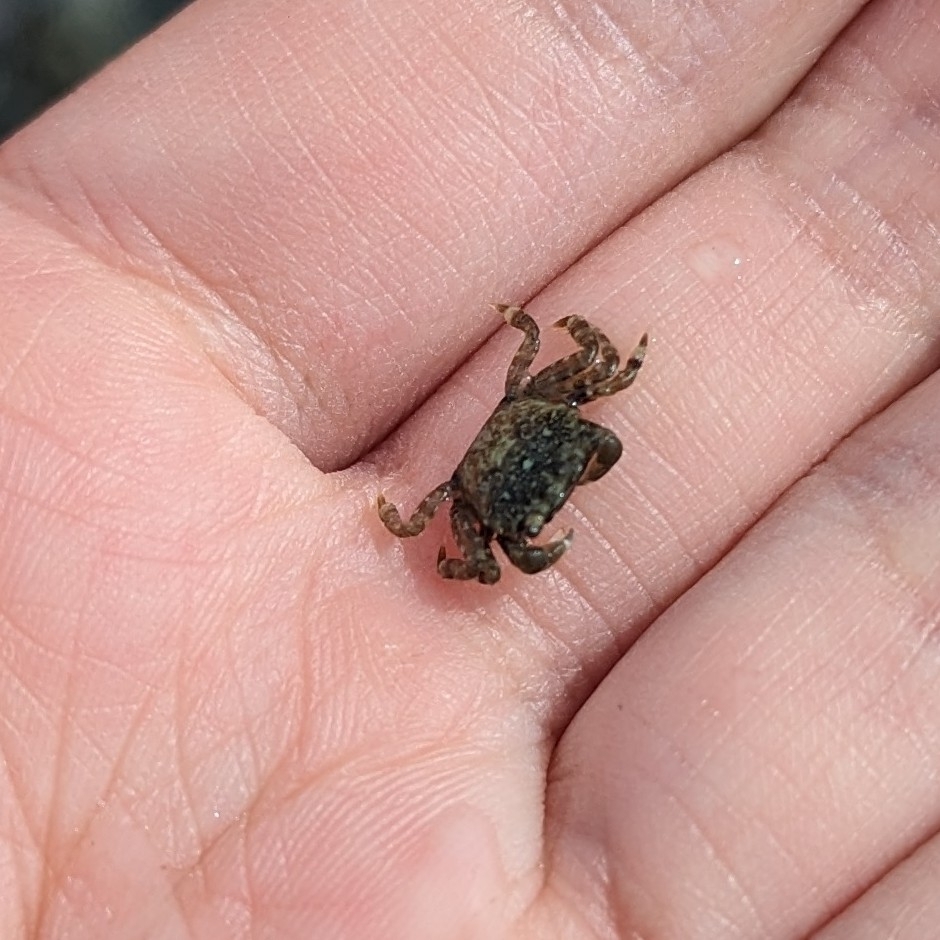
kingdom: Animalia
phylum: Arthropoda
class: Malacostraca
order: Decapoda
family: Varunidae
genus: Hemigrapsus
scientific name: Hemigrapsus oregonensis
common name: Yellow shore crab
